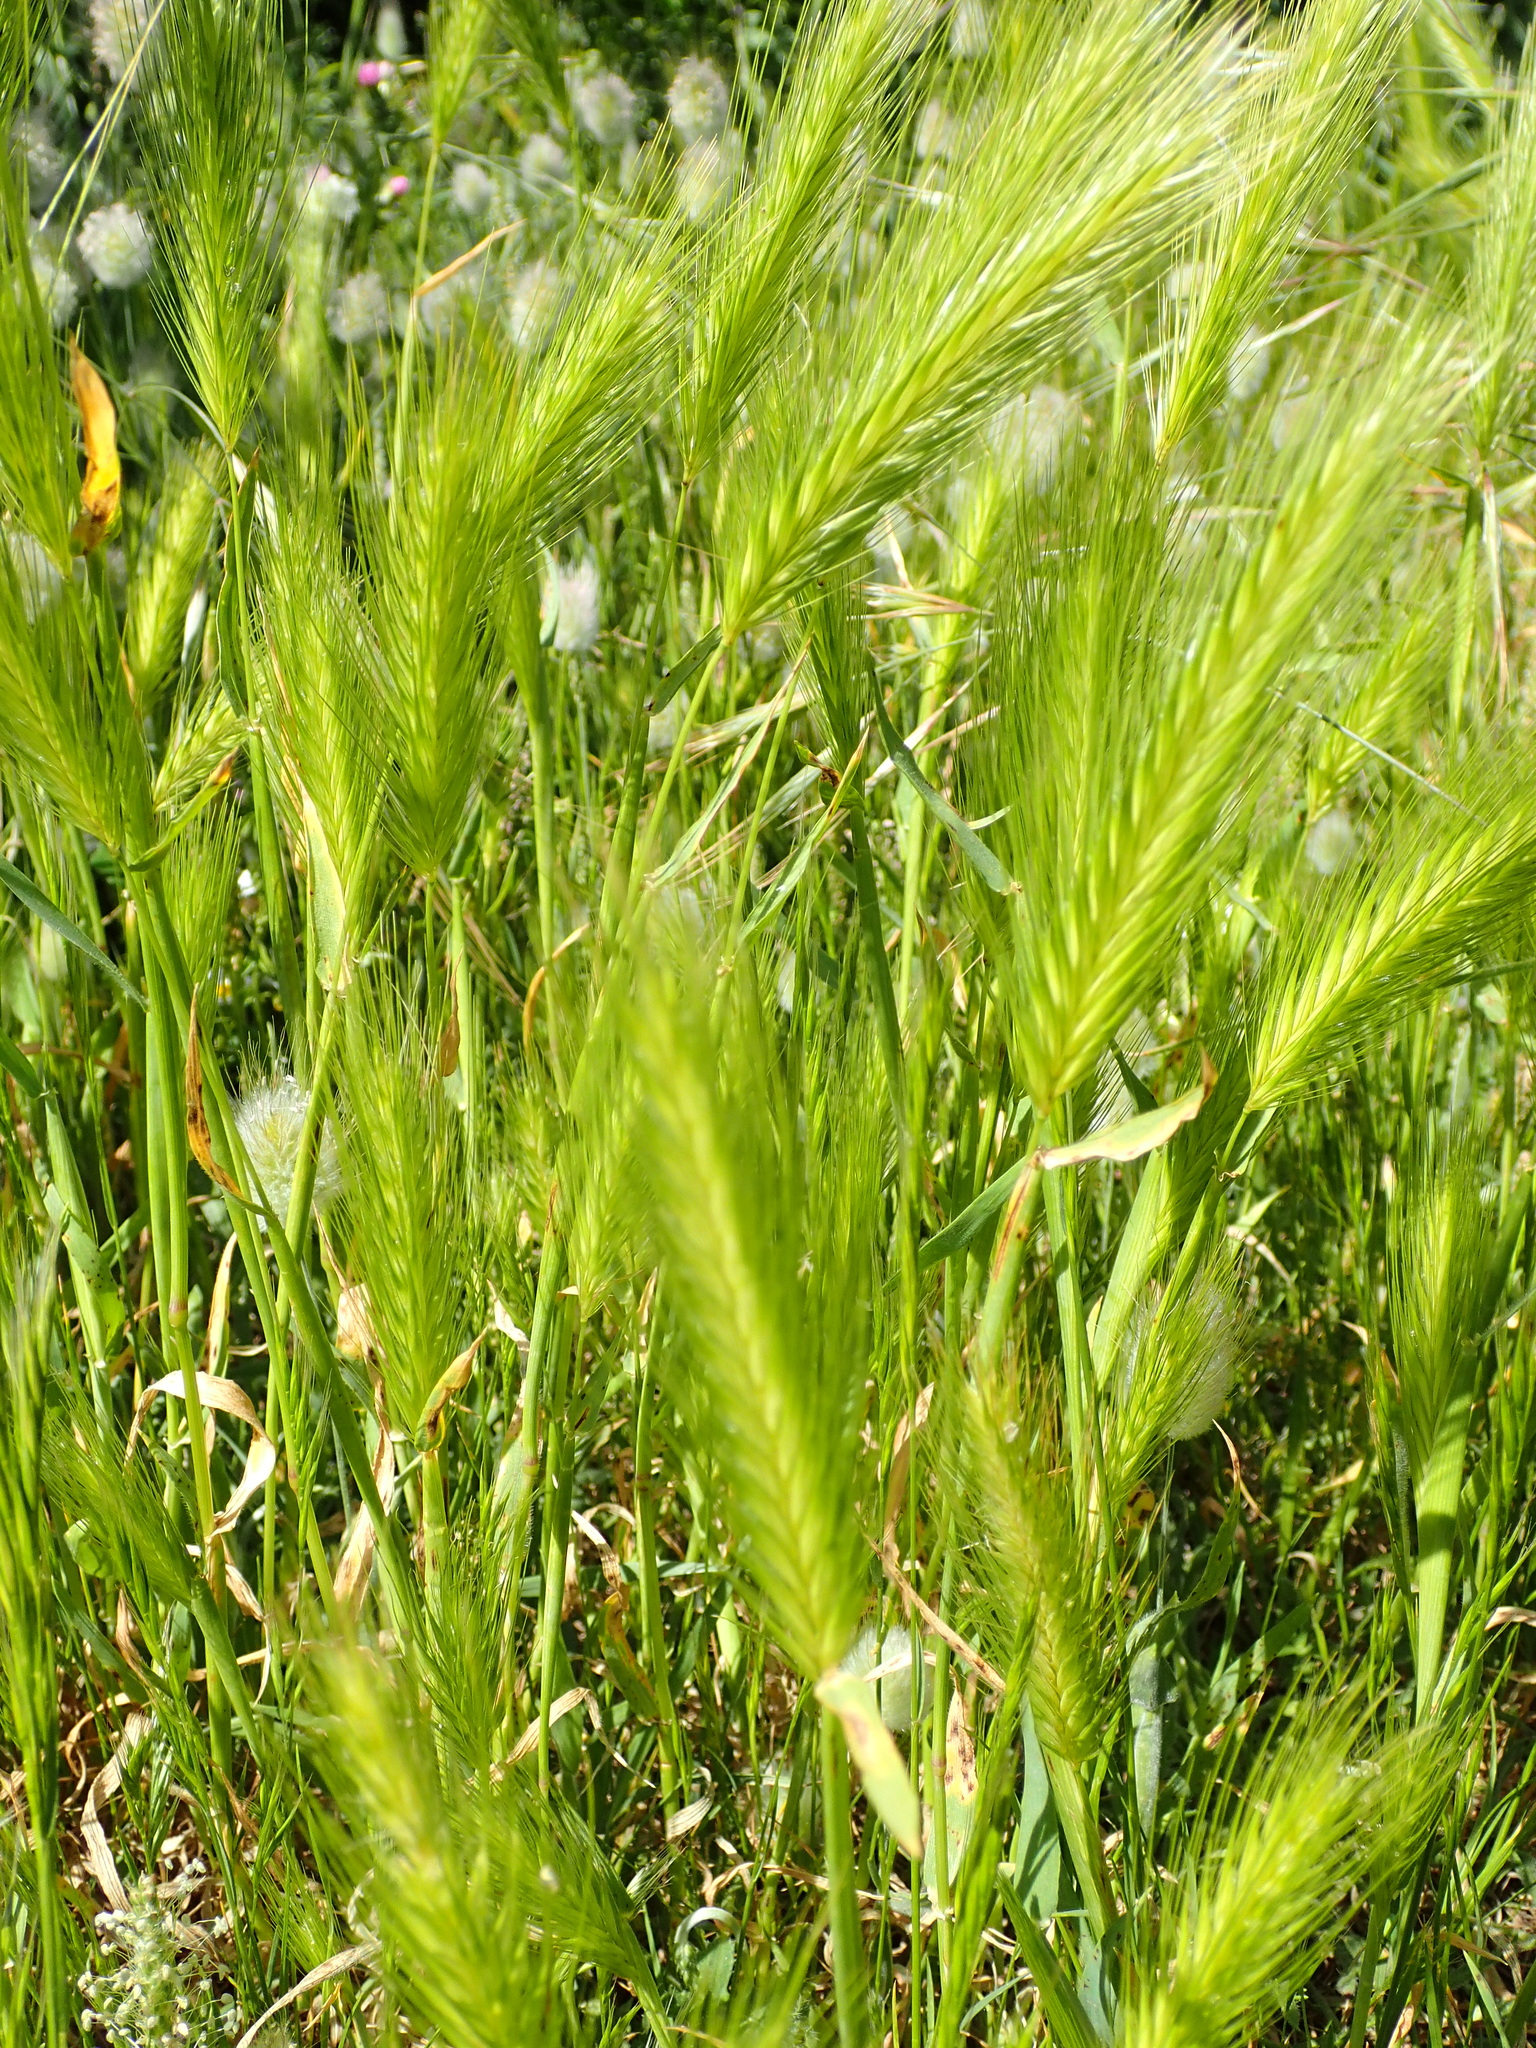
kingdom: Plantae
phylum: Tracheophyta
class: Liliopsida
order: Poales
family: Poaceae
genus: Hordeum
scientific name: Hordeum murinum
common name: Wall barley
